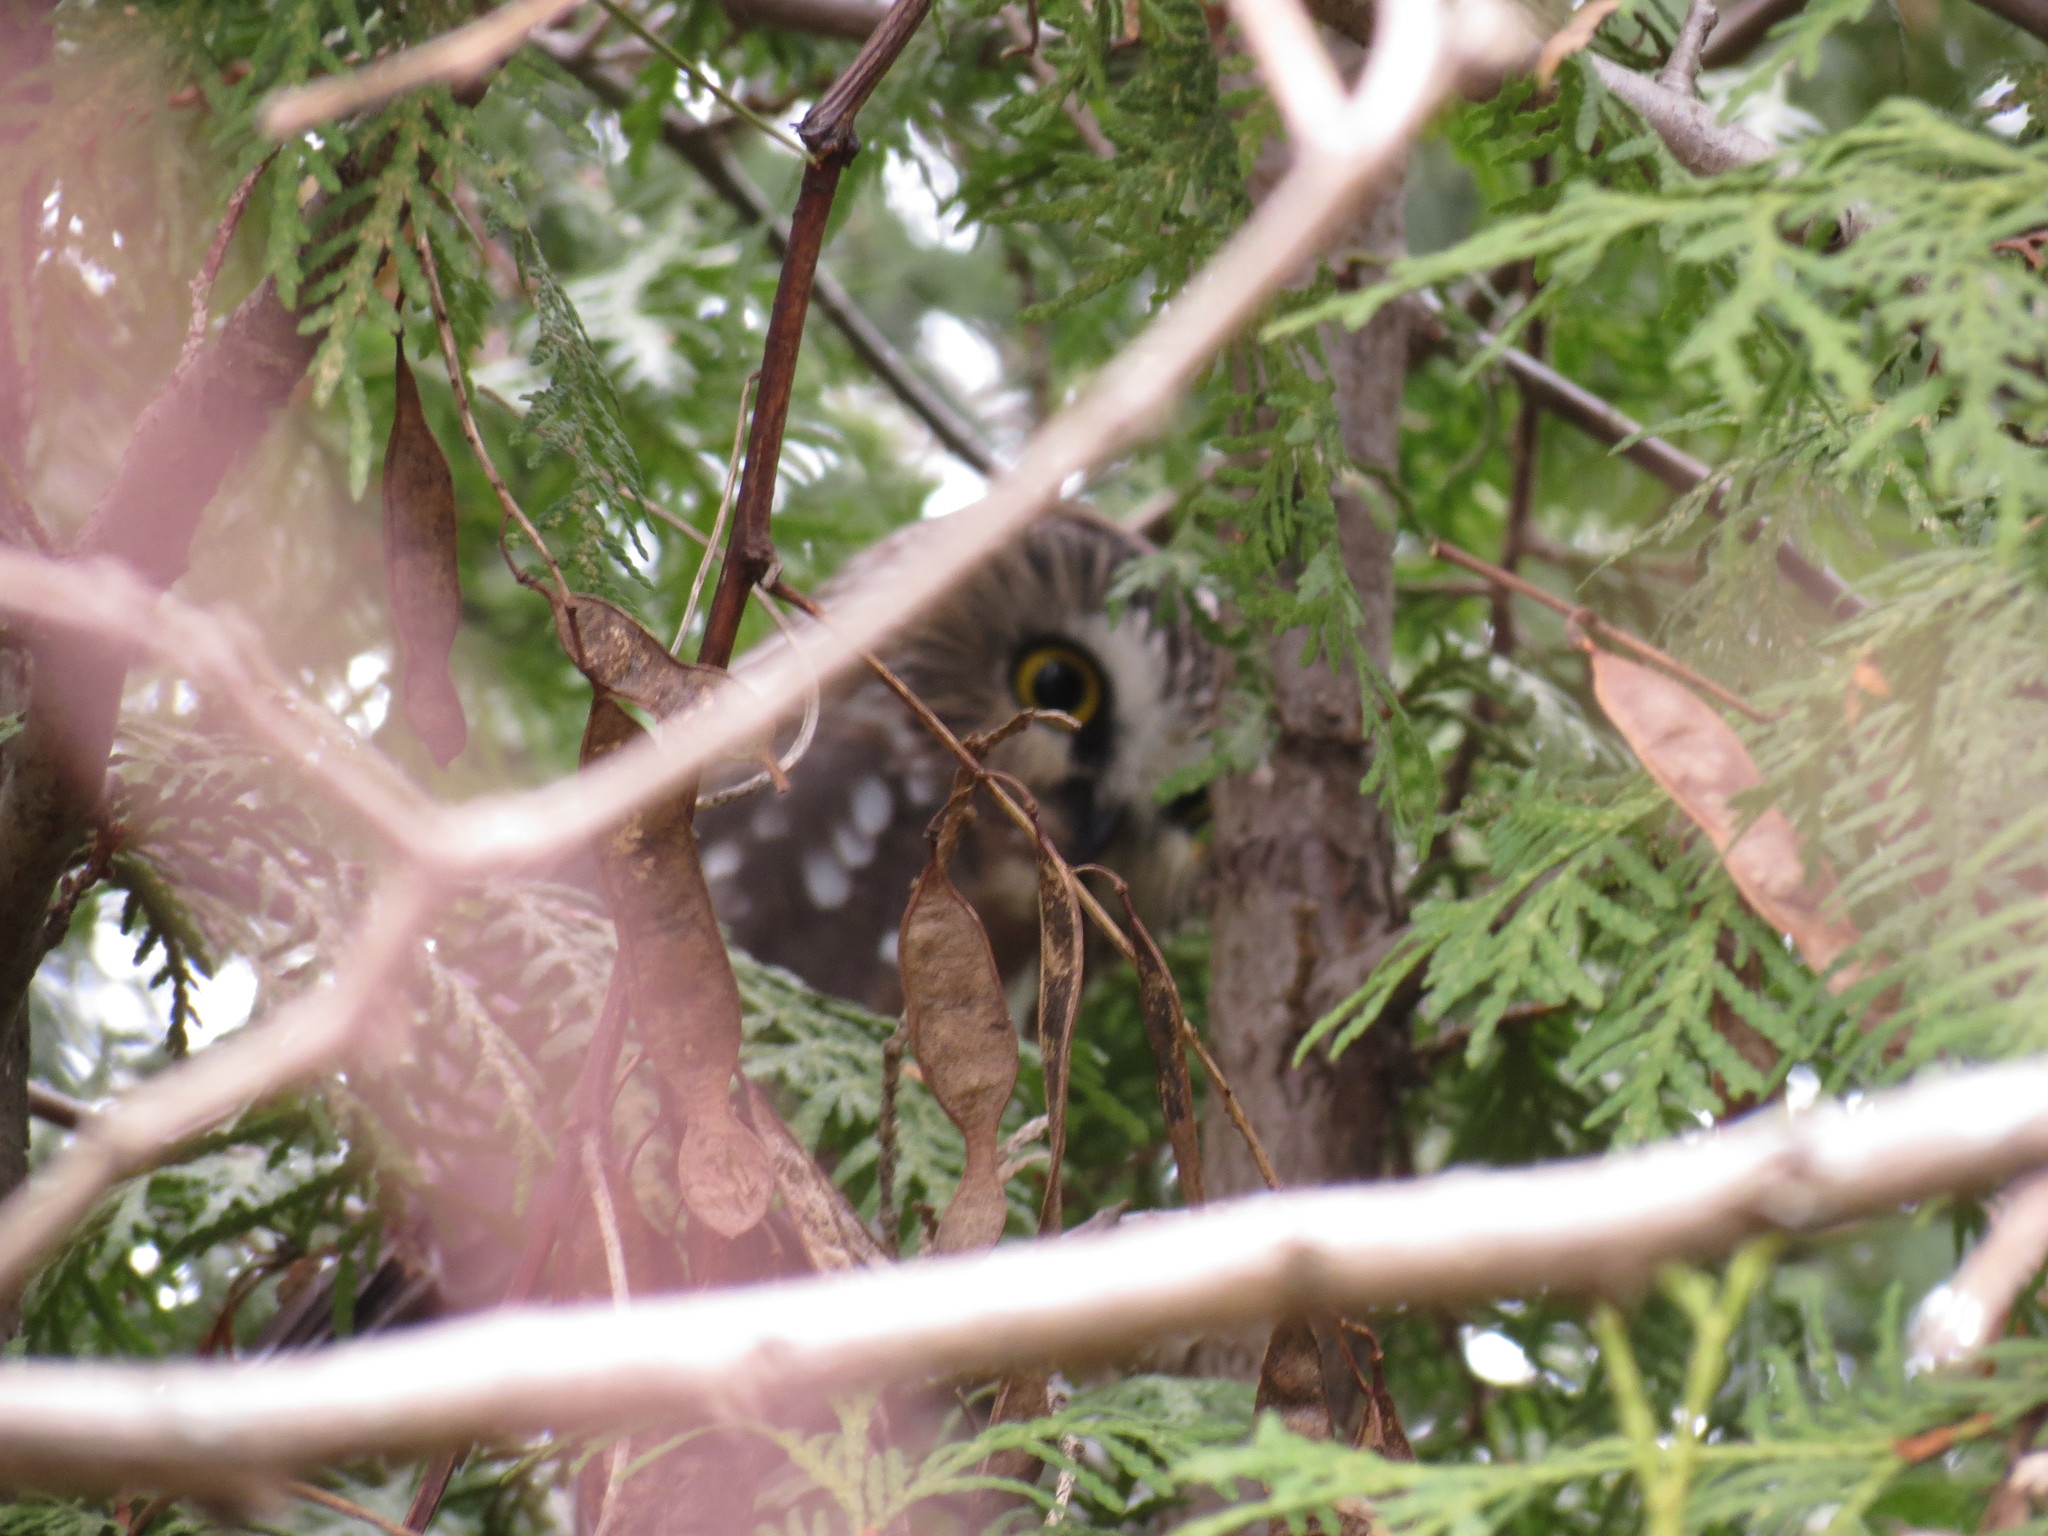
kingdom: Animalia
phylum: Chordata
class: Aves
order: Strigiformes
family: Strigidae
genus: Aegolius
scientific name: Aegolius acadicus
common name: Northern saw-whet owl
